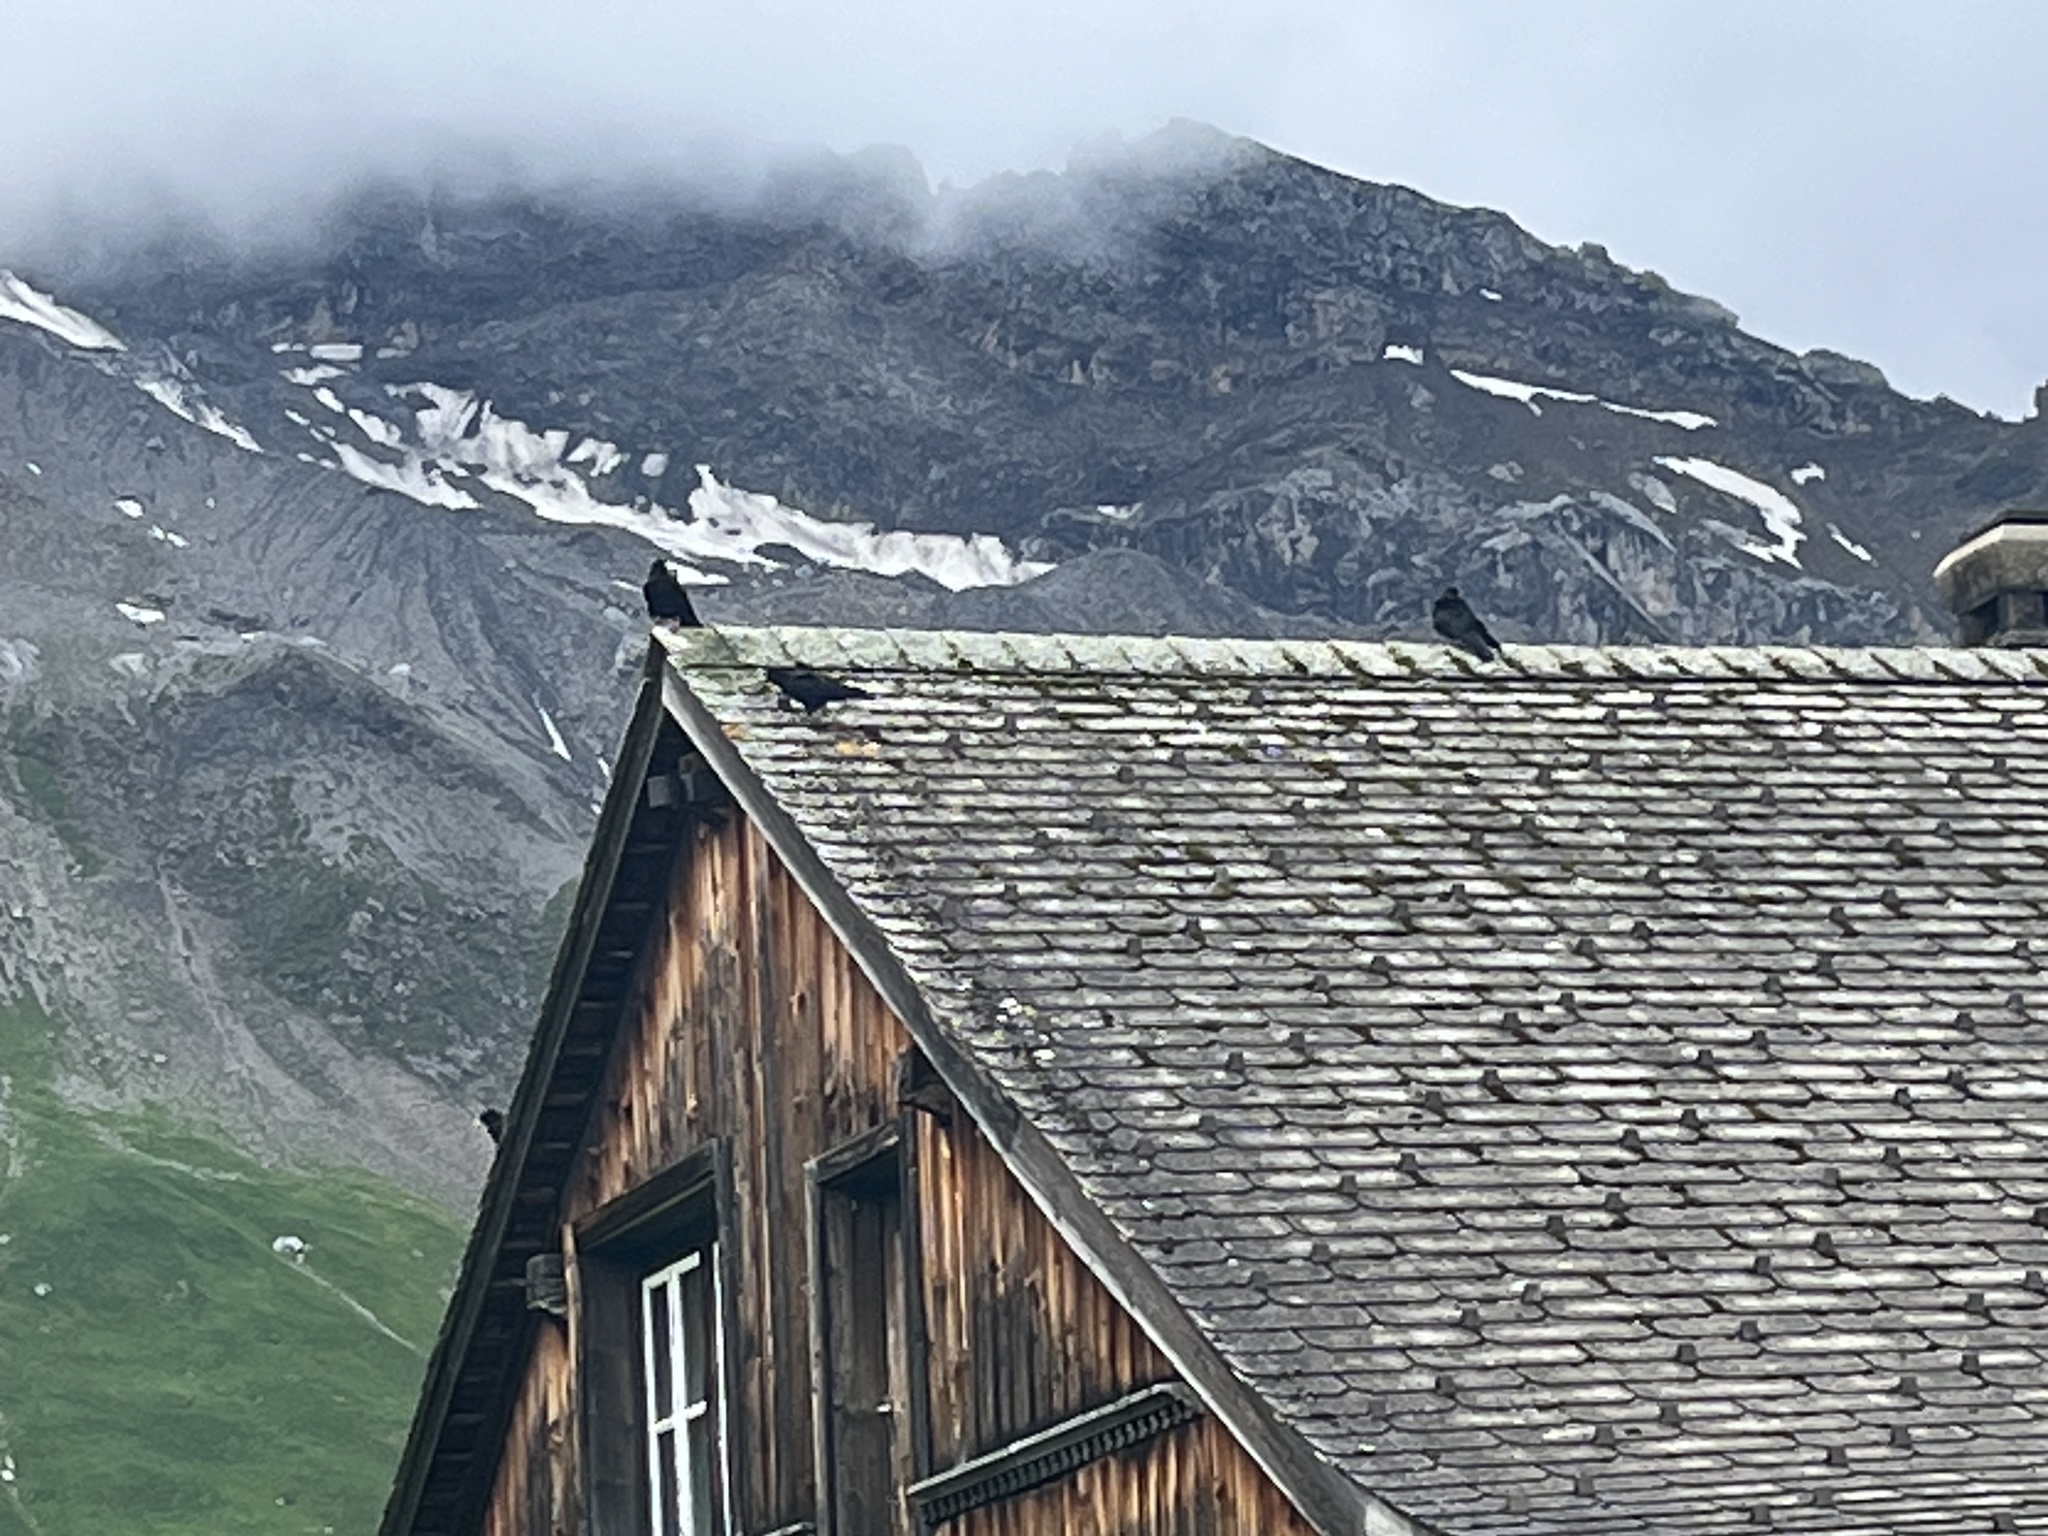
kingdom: Animalia
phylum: Chordata
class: Aves
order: Passeriformes
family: Corvidae
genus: Pyrrhocorax
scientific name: Pyrrhocorax graculus
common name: Alpine chough
